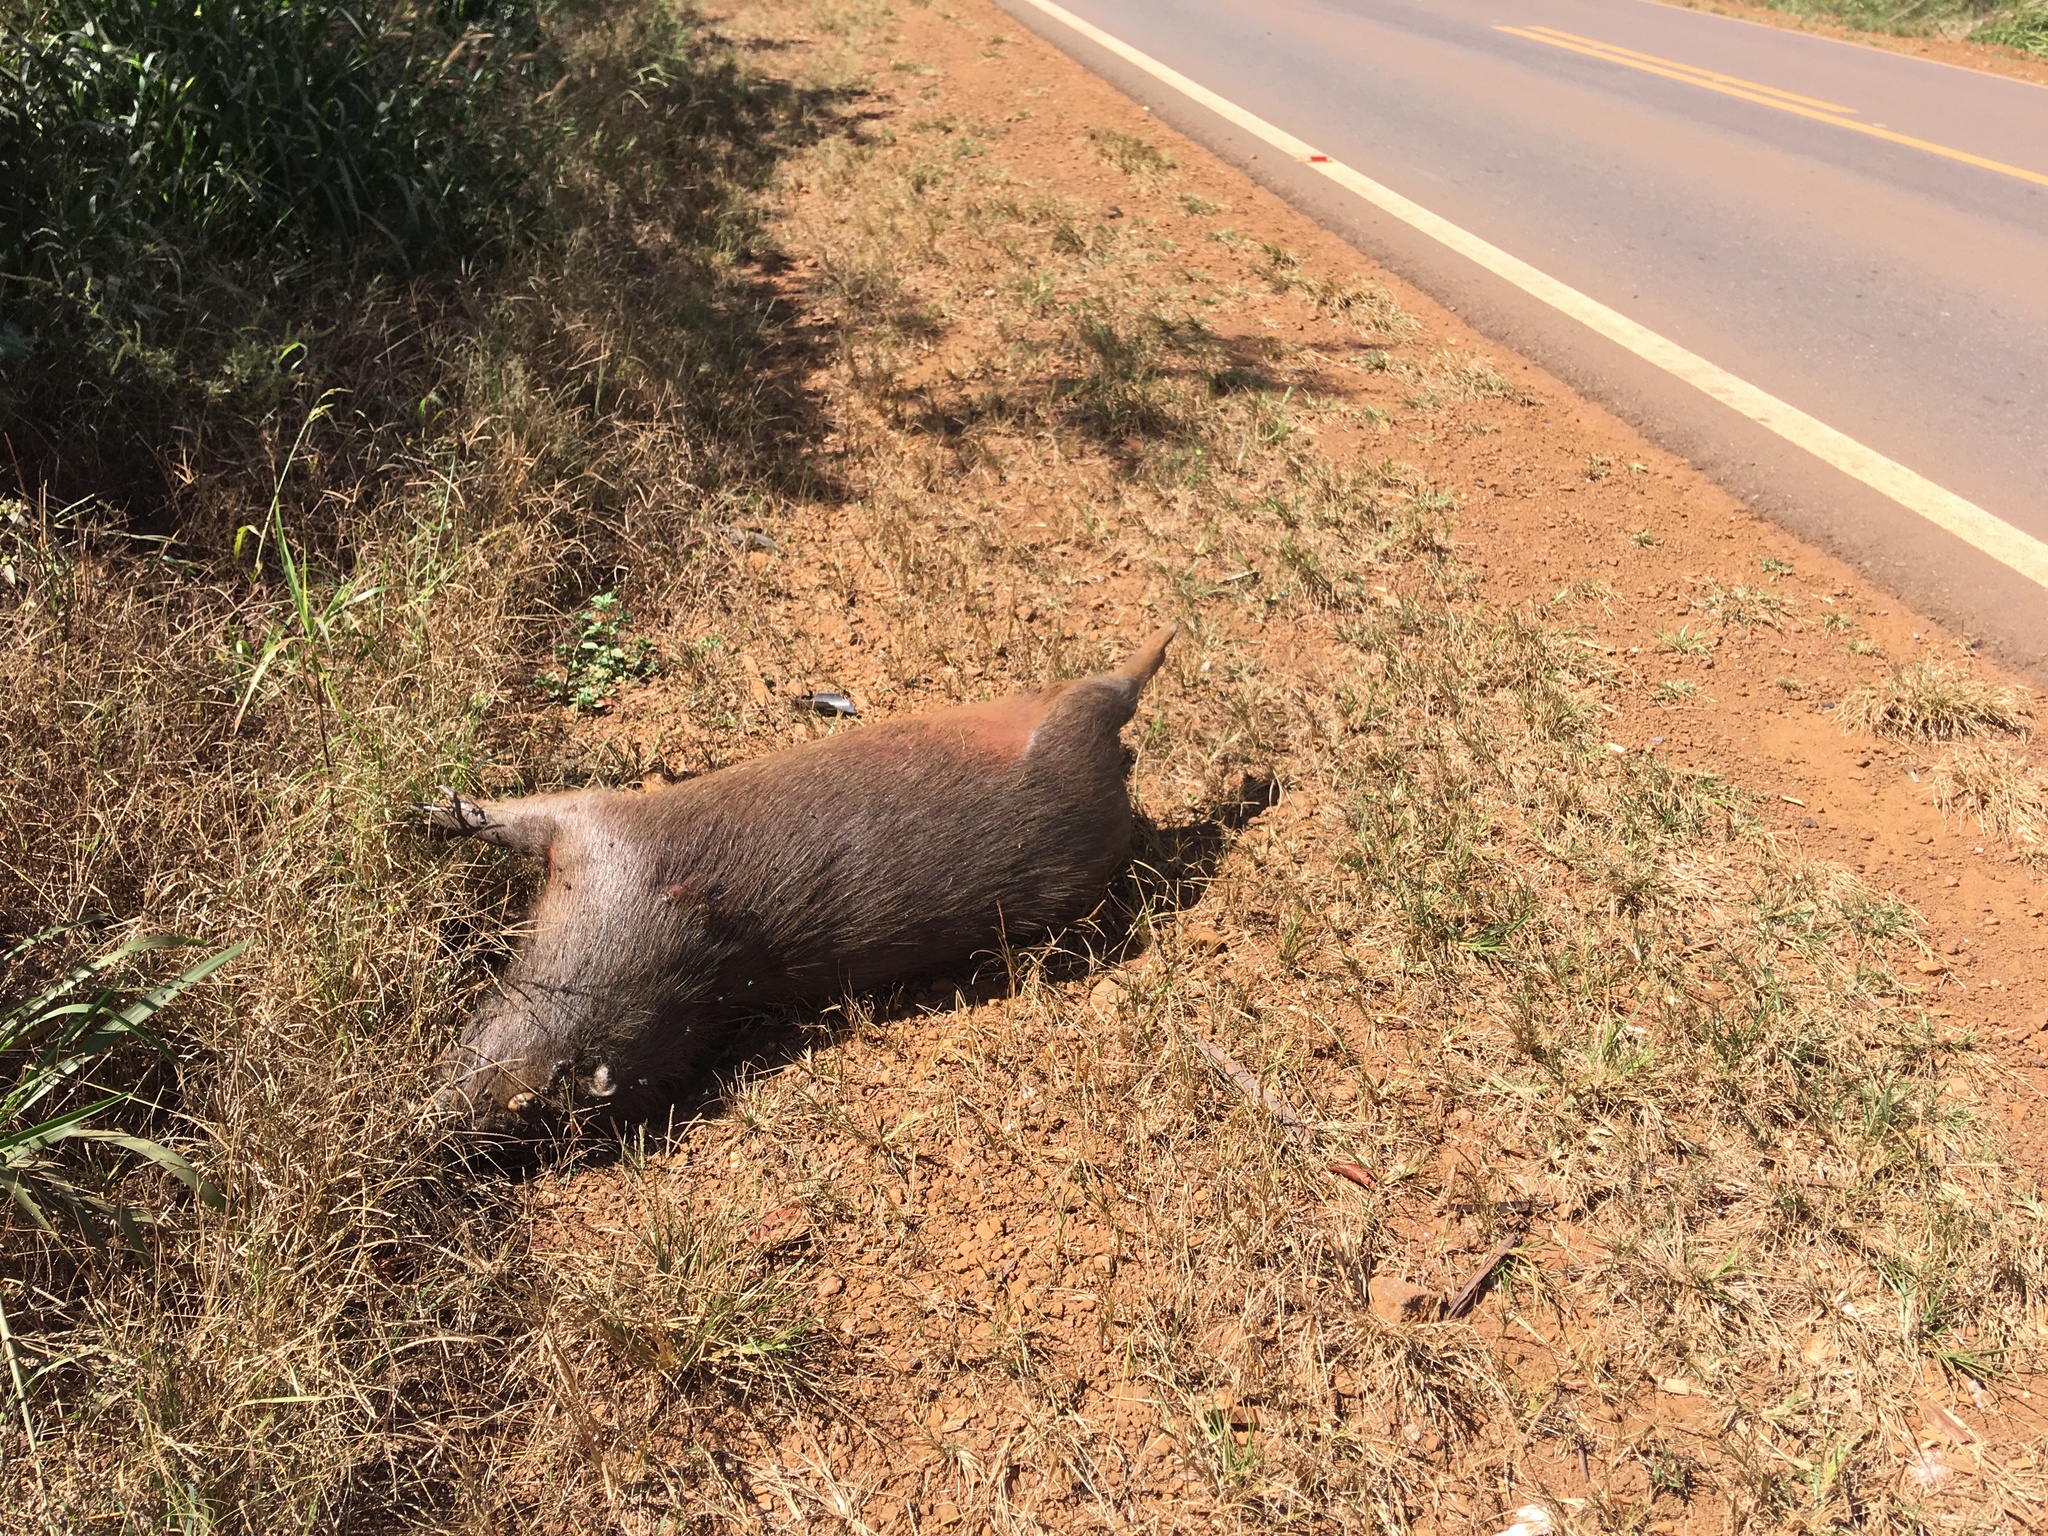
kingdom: Animalia
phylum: Chordata
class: Mammalia
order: Rodentia
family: Caviidae
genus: Hydrochoerus
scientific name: Hydrochoerus hydrochaeris
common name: Capybara
